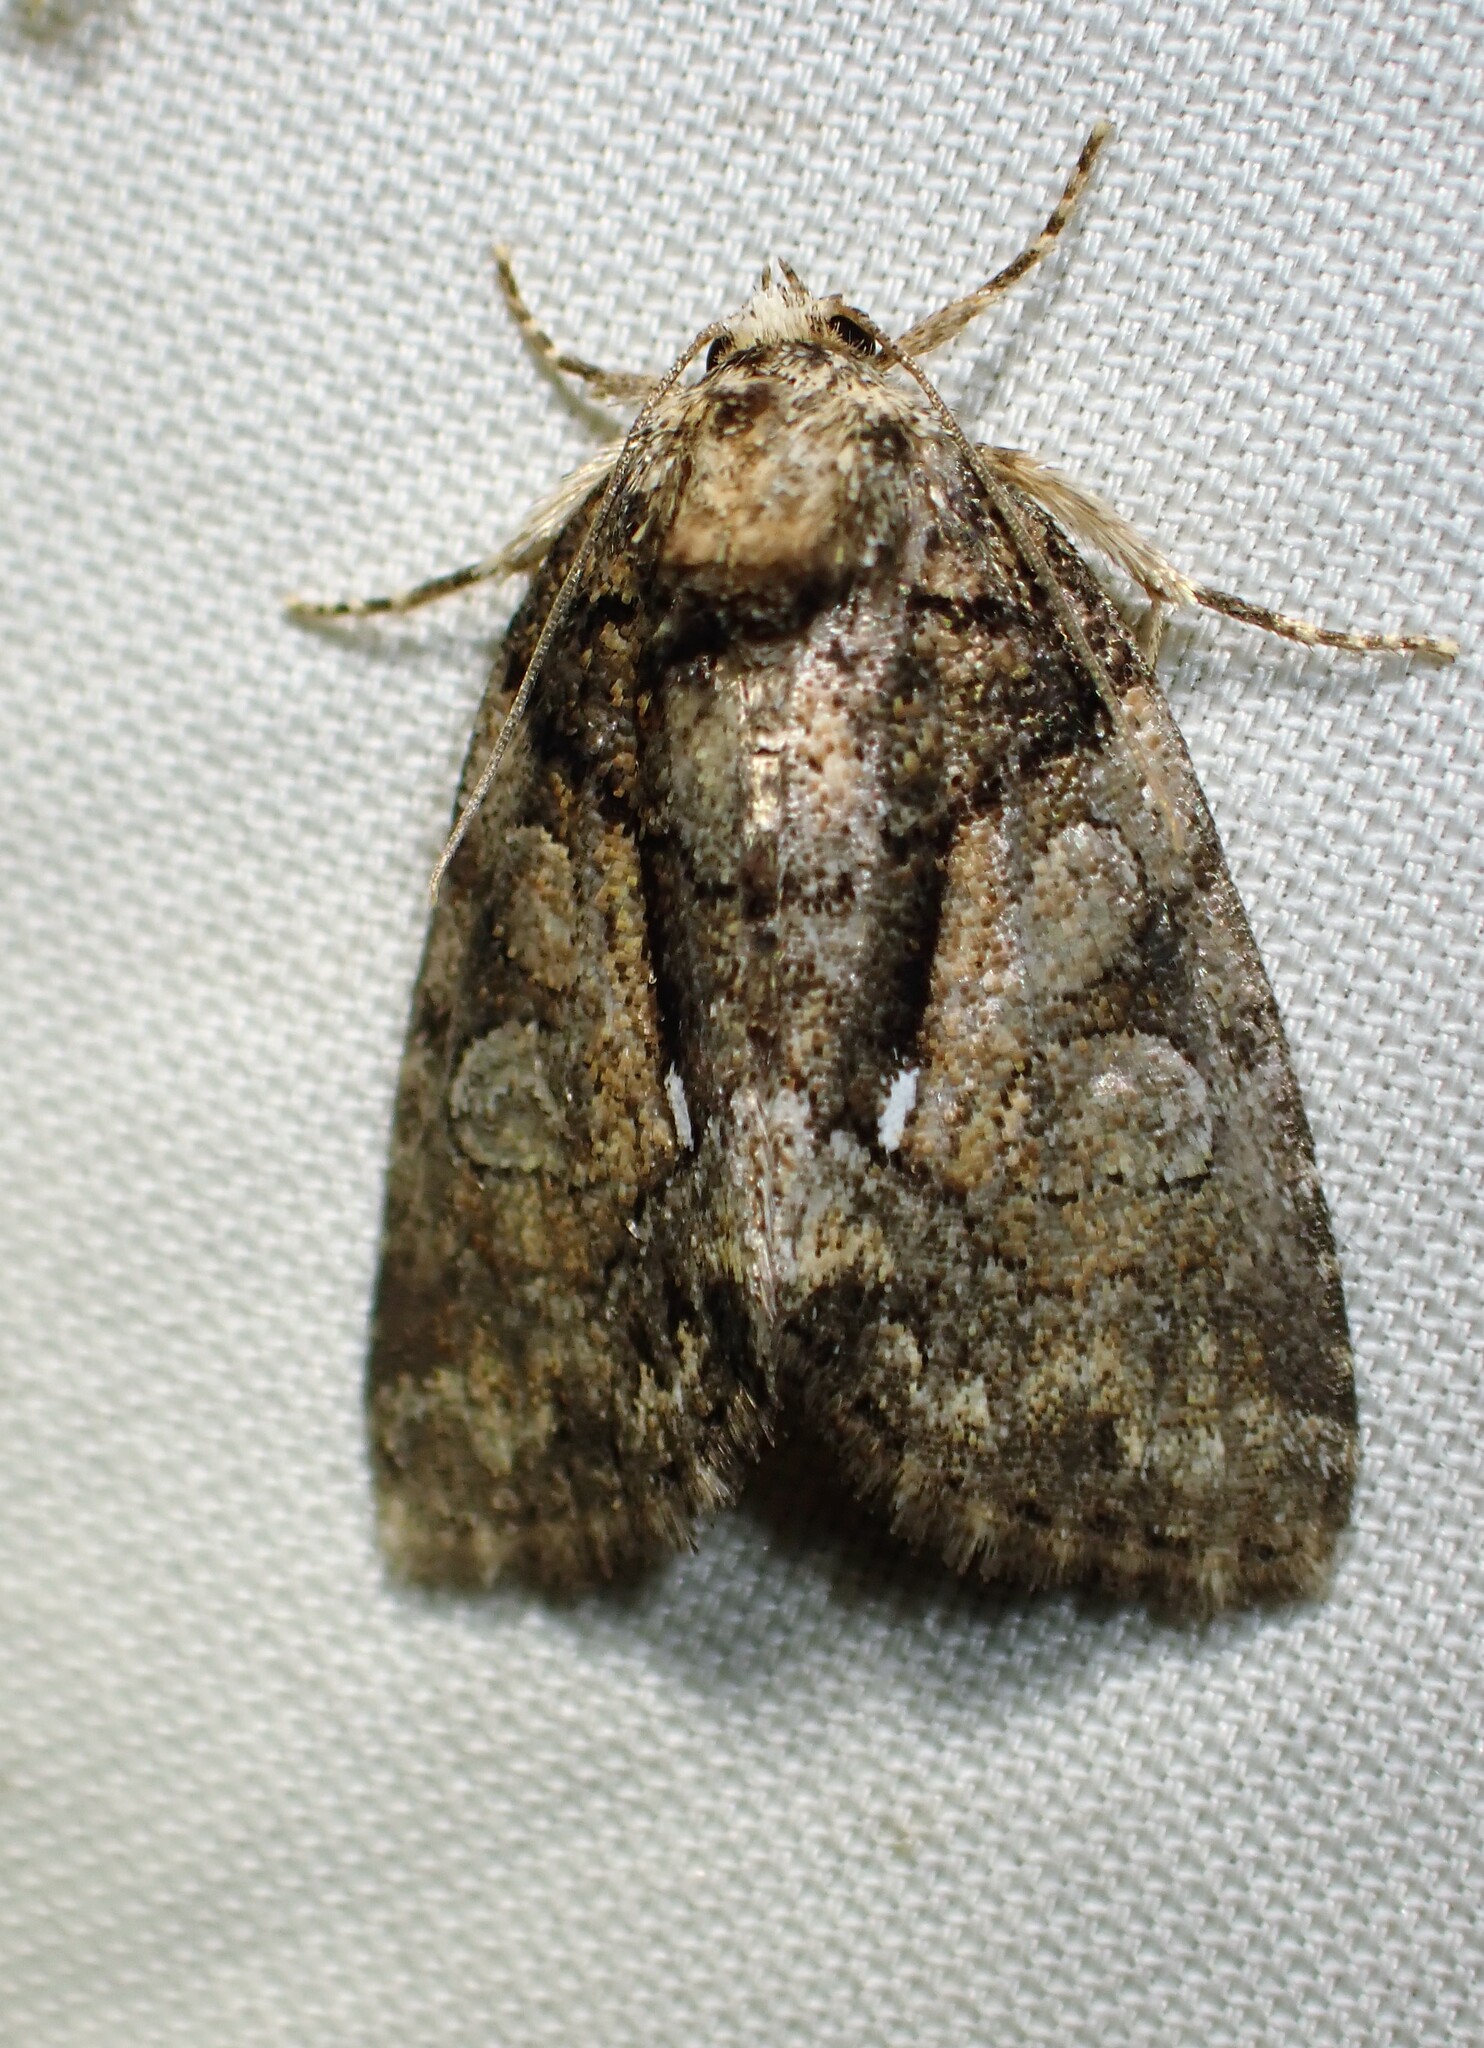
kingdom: Animalia
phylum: Arthropoda
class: Insecta
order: Lepidoptera
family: Noctuidae
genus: Chytonix
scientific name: Chytonix palliatricula
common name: Cloaked marvel
